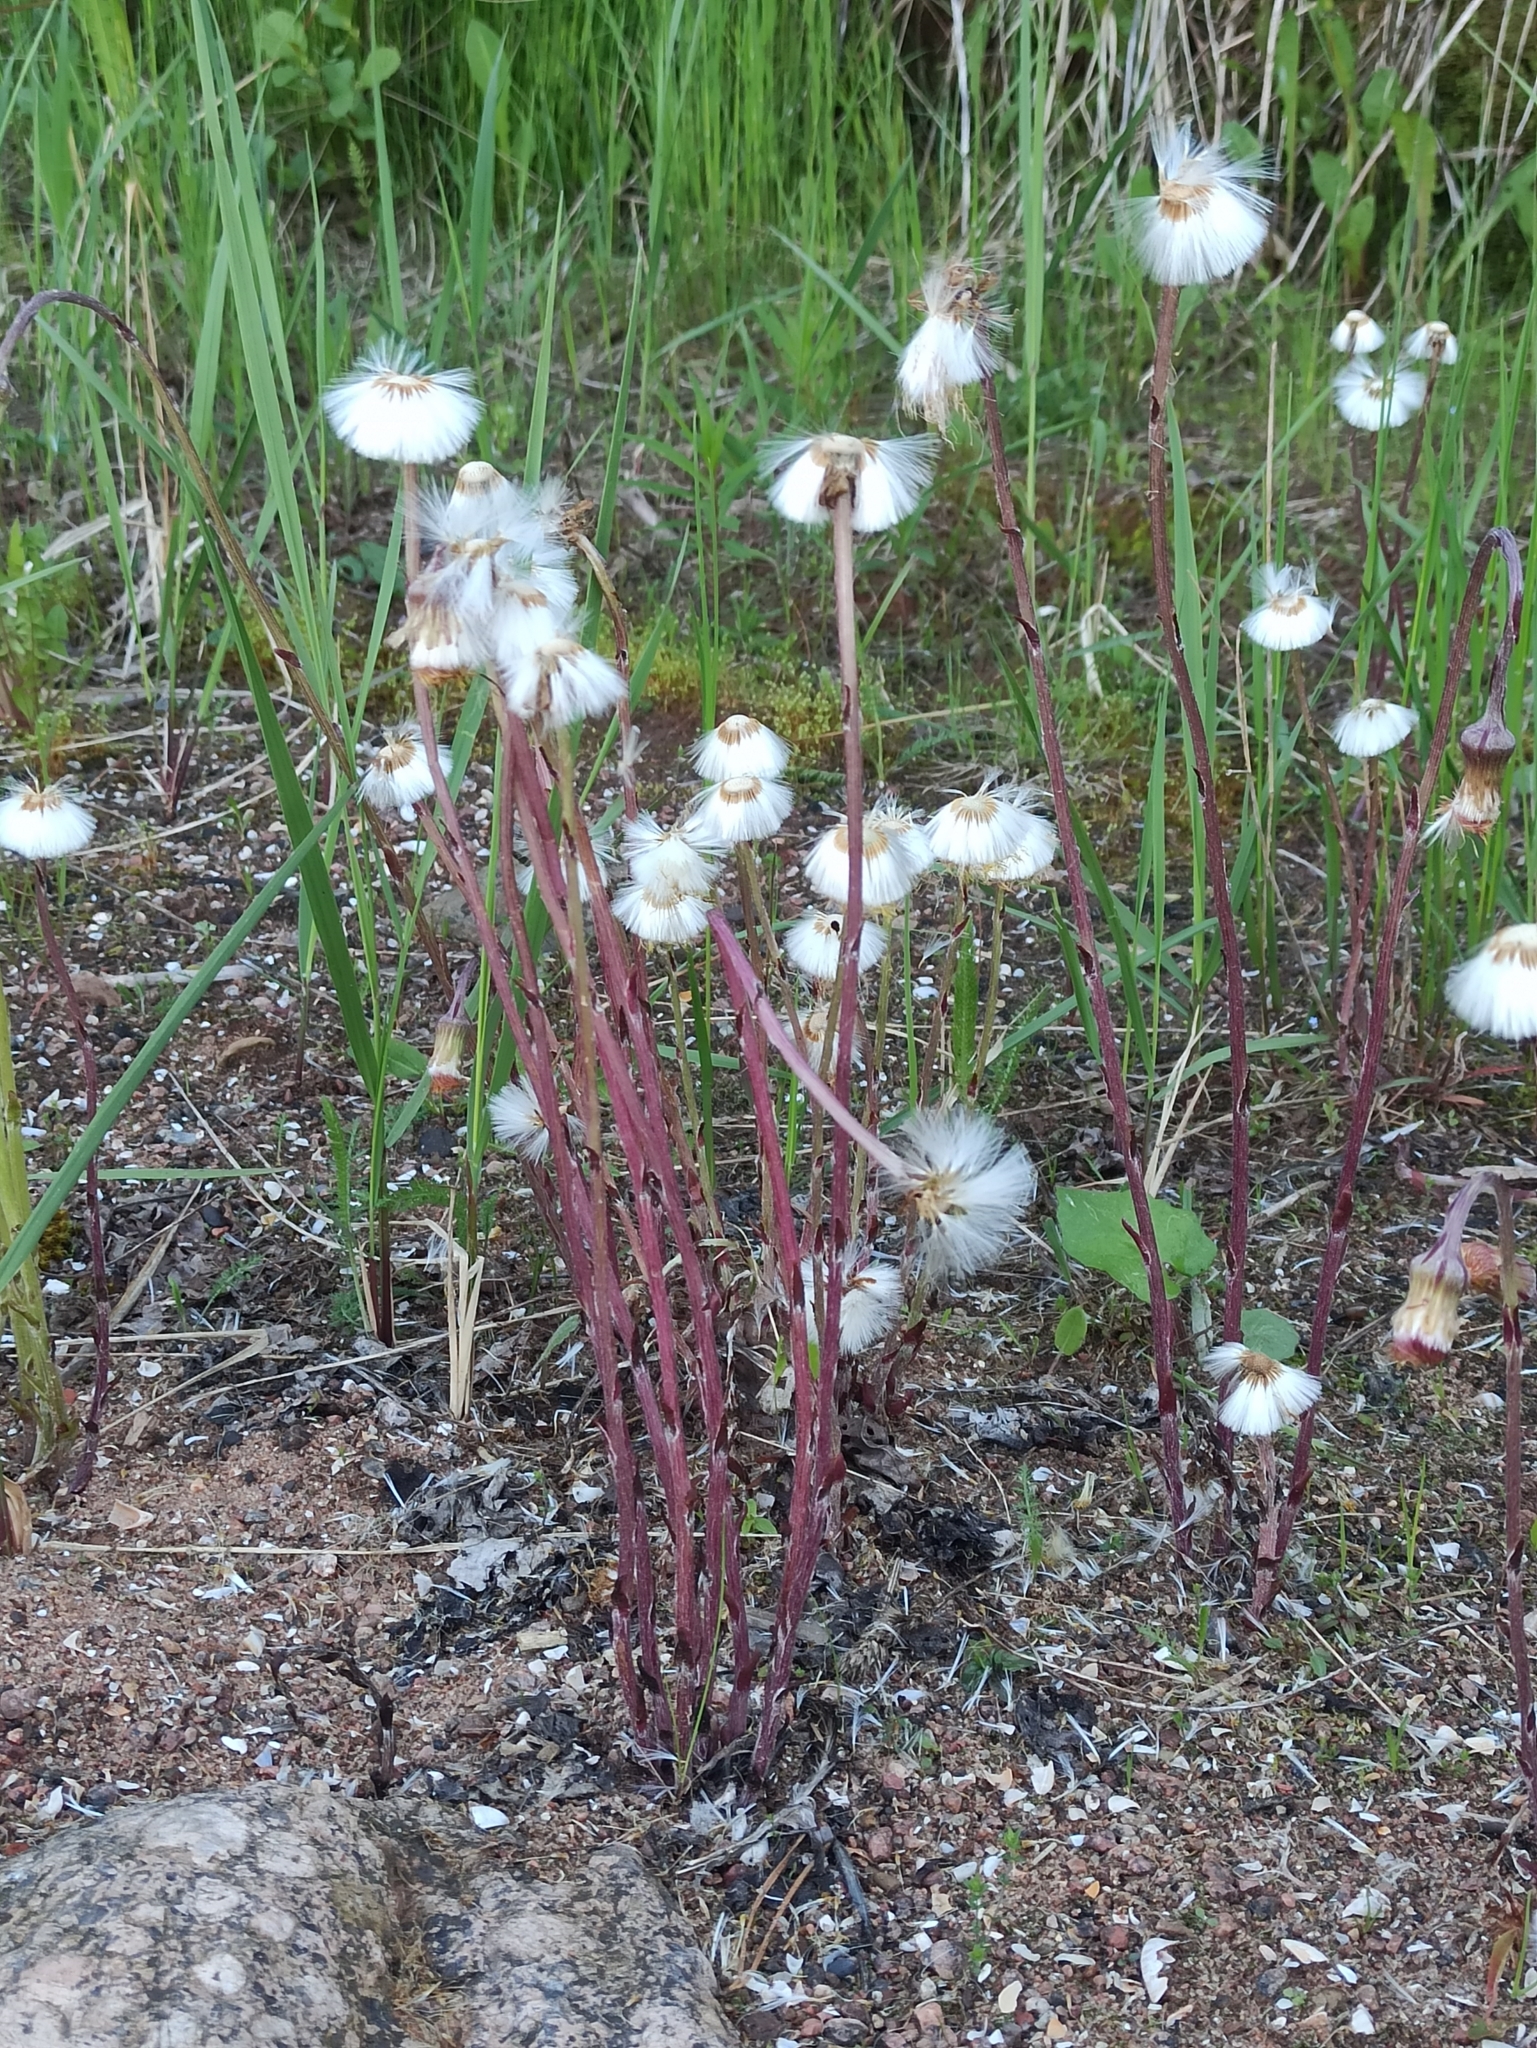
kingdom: Plantae
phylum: Tracheophyta
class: Magnoliopsida
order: Asterales
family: Asteraceae
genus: Tussilago
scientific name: Tussilago farfara
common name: Coltsfoot
